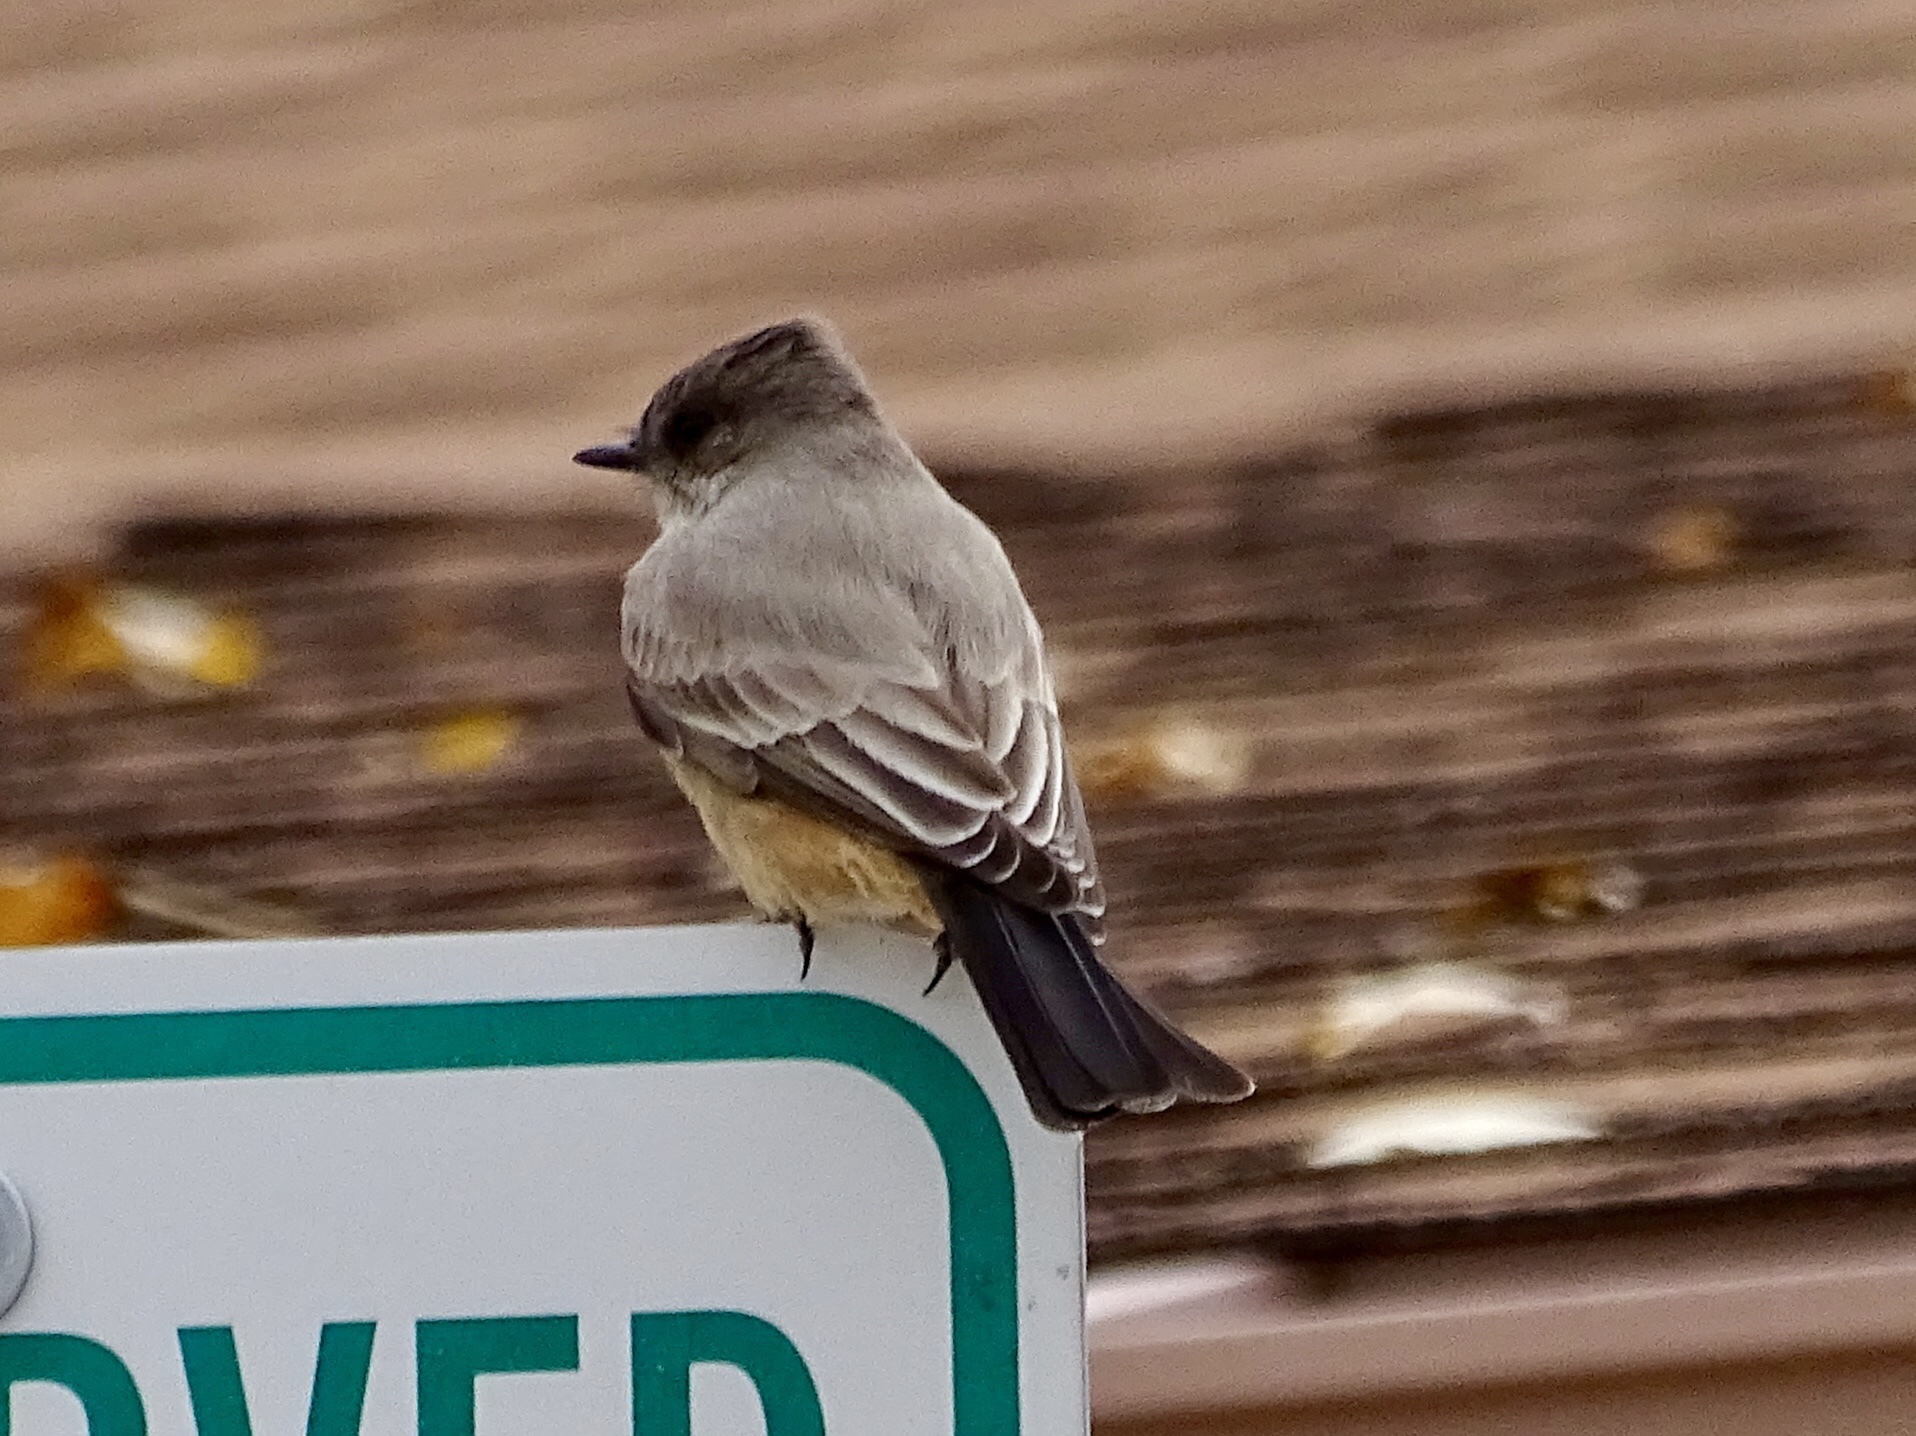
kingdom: Animalia
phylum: Chordata
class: Aves
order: Passeriformes
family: Tyrannidae
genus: Sayornis
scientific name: Sayornis saya
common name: Say's phoebe
